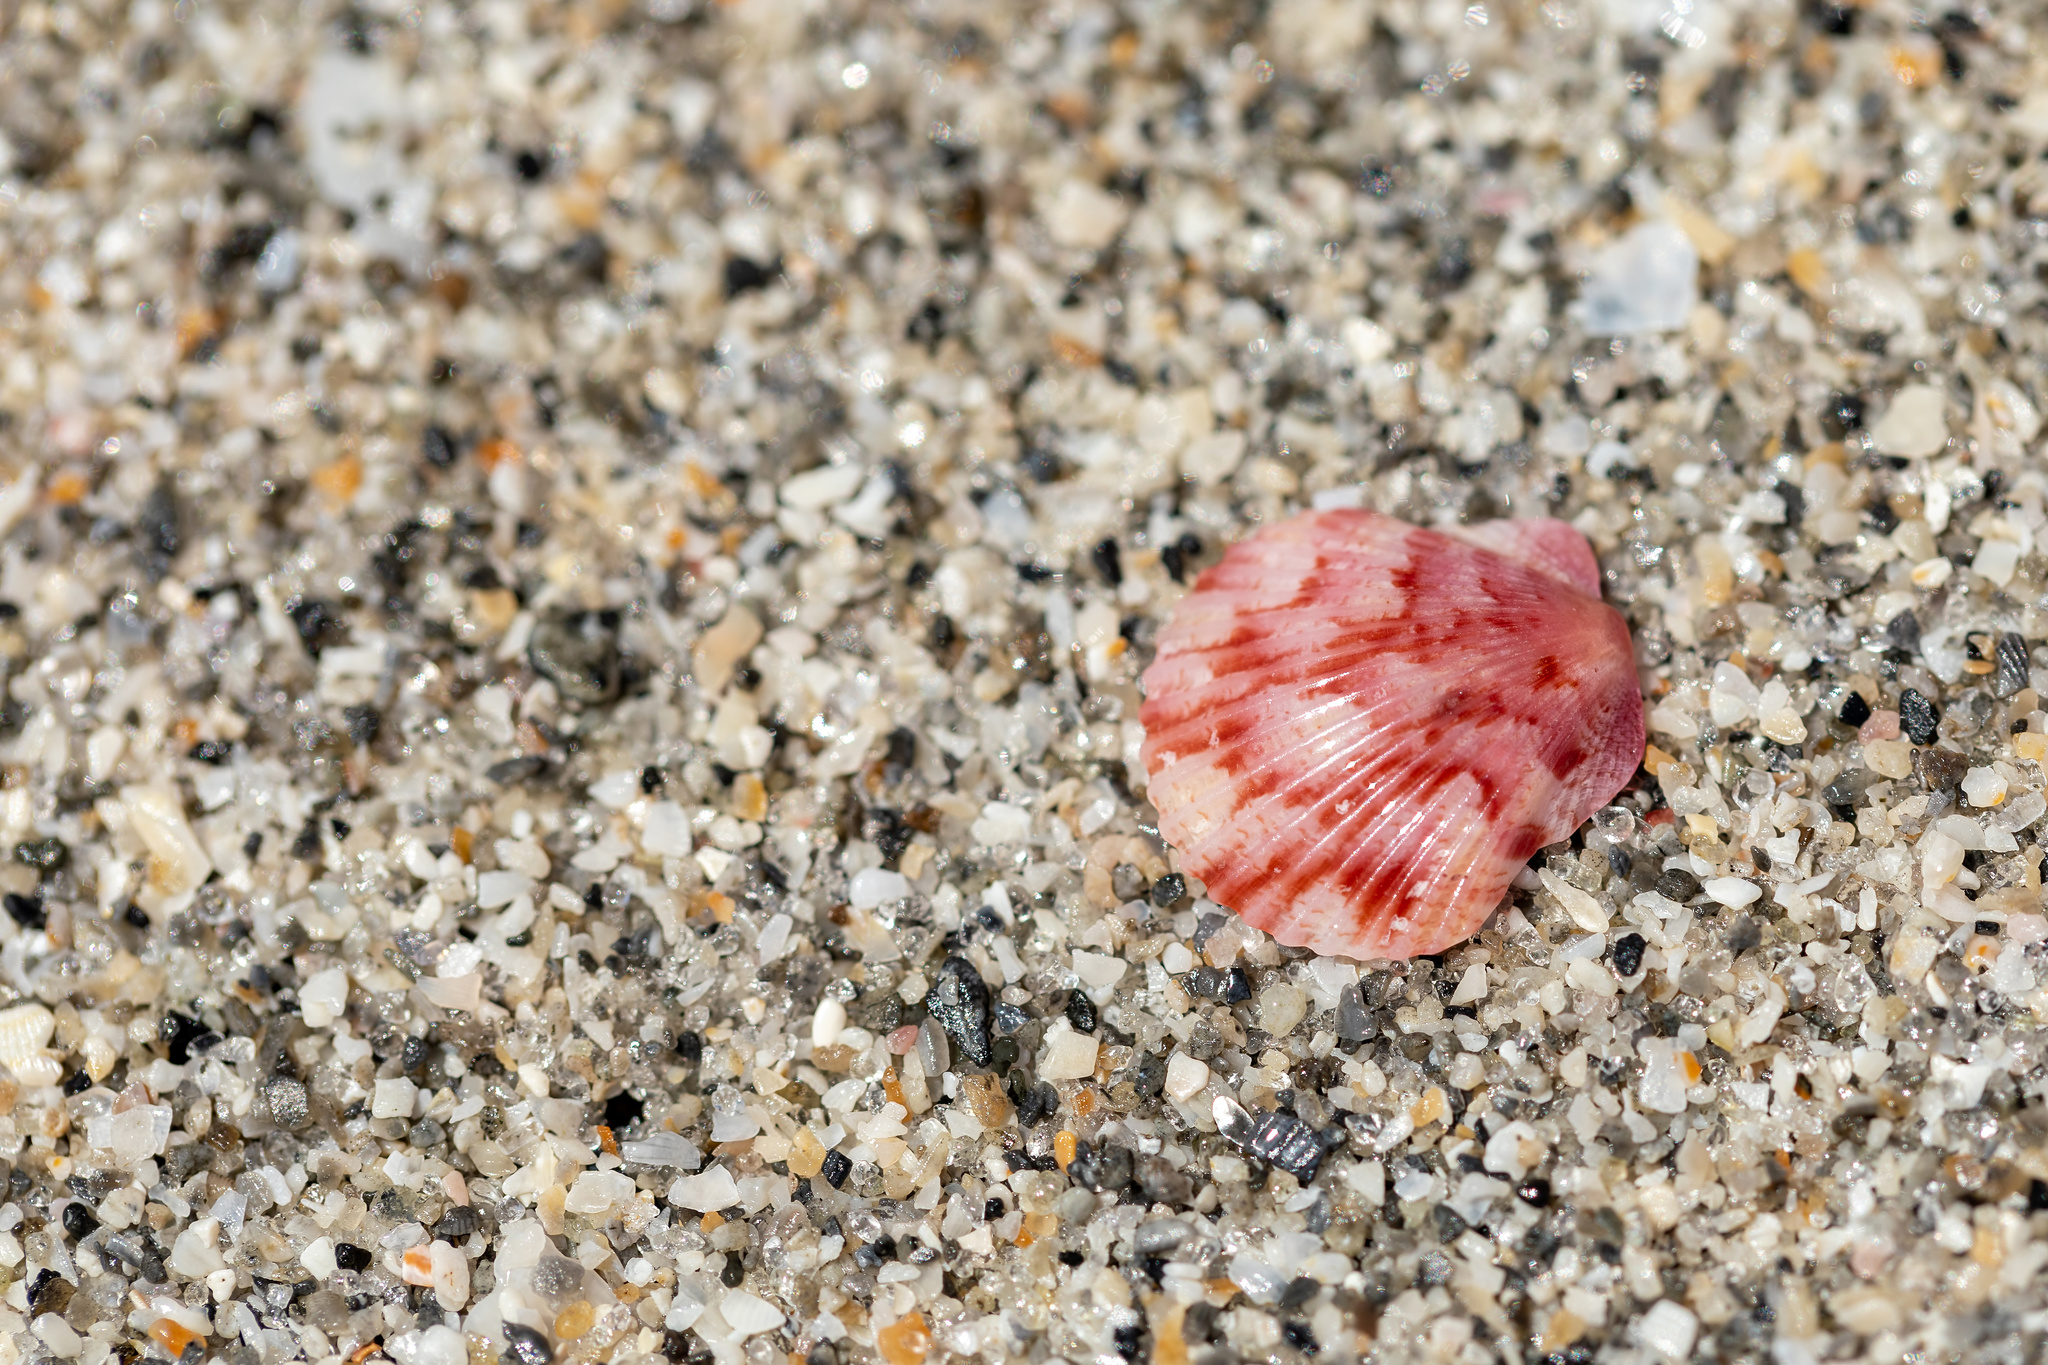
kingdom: Animalia
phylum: Mollusca
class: Bivalvia
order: Pectinida
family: Pectinidae
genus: Argopecten
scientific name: Argopecten gibbus
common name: Atlantic calico scallop
